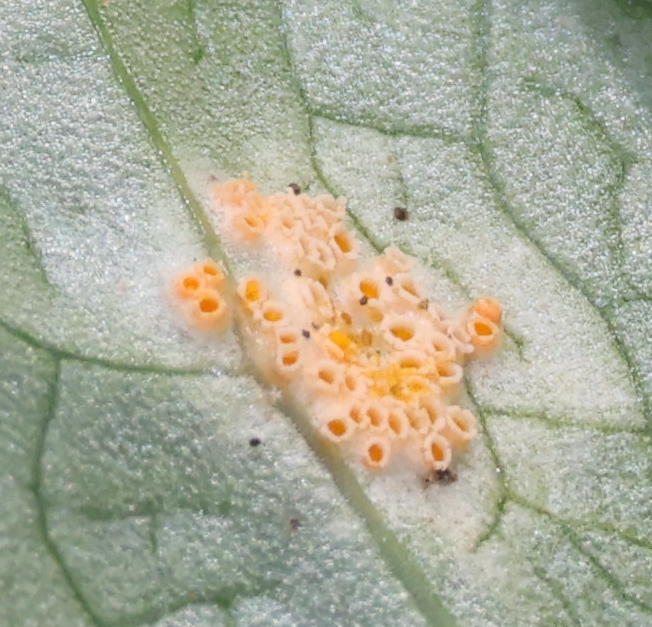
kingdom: Fungi
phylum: Basidiomycota
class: Pucciniomycetes
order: Pucciniales
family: Pucciniaceae
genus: Puccinia
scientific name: Puccinia sessilis
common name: Arum rust
